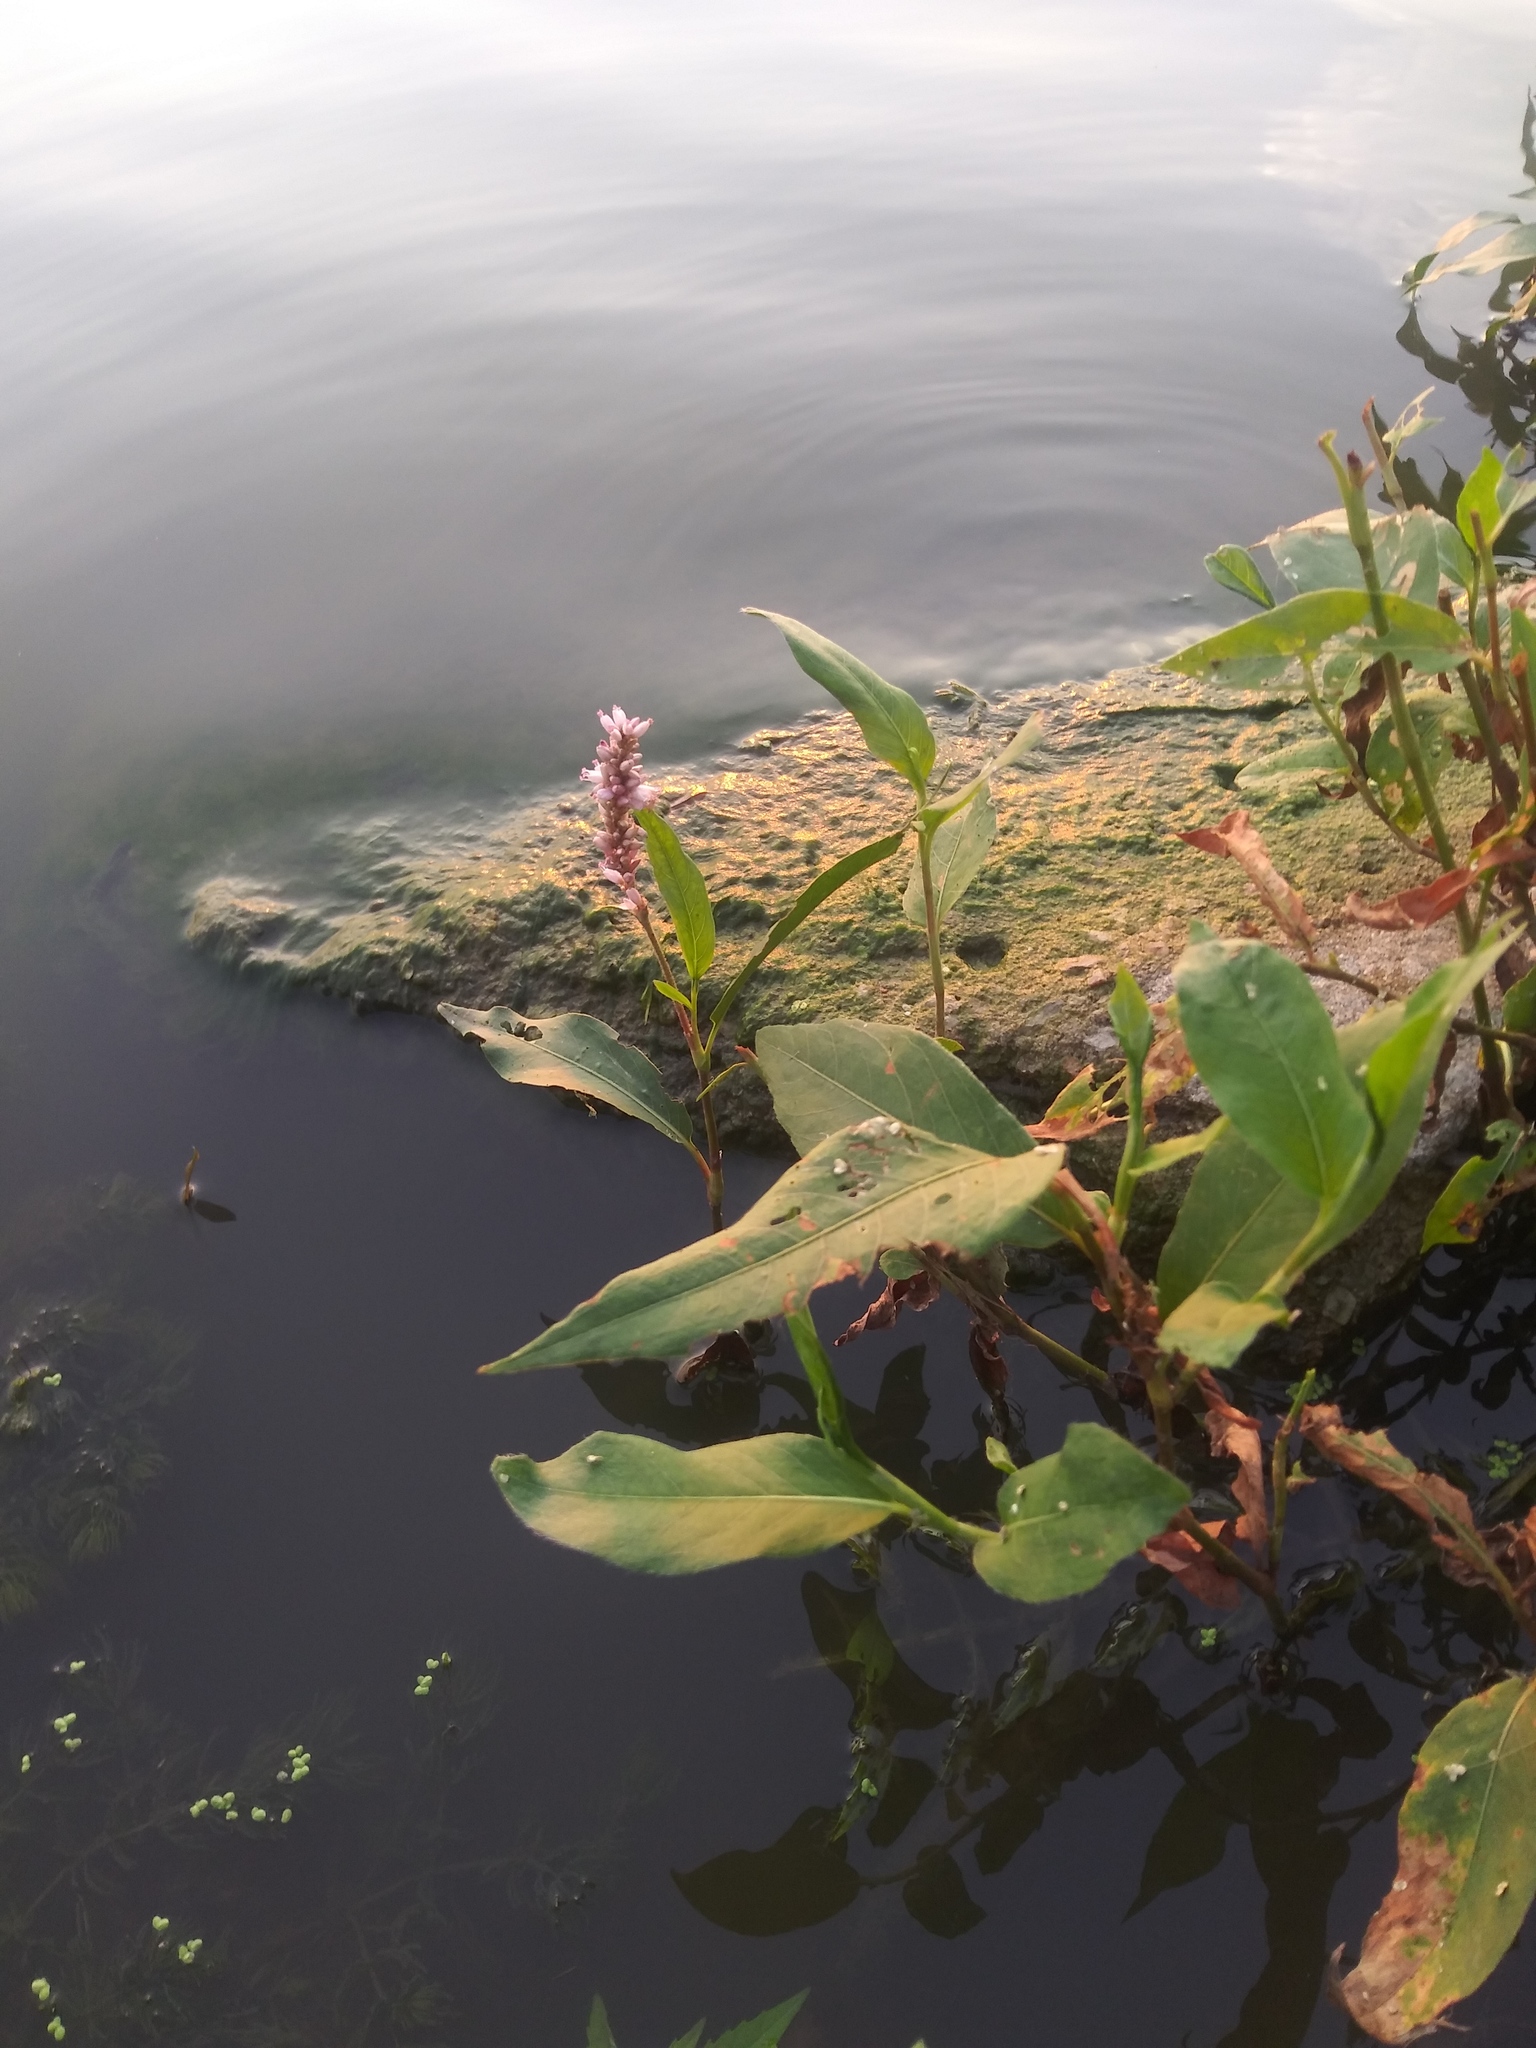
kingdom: Plantae
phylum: Tracheophyta
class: Magnoliopsida
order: Caryophyllales
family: Polygonaceae
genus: Persicaria
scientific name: Persicaria amphibia
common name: Amphibious bistort
